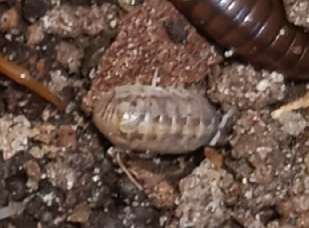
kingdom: Animalia
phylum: Arthropoda
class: Malacostraca
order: Isopoda
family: Armadillidiidae
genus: Armadillidium
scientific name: Armadillidium vulgare
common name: Common pill woodlouse
